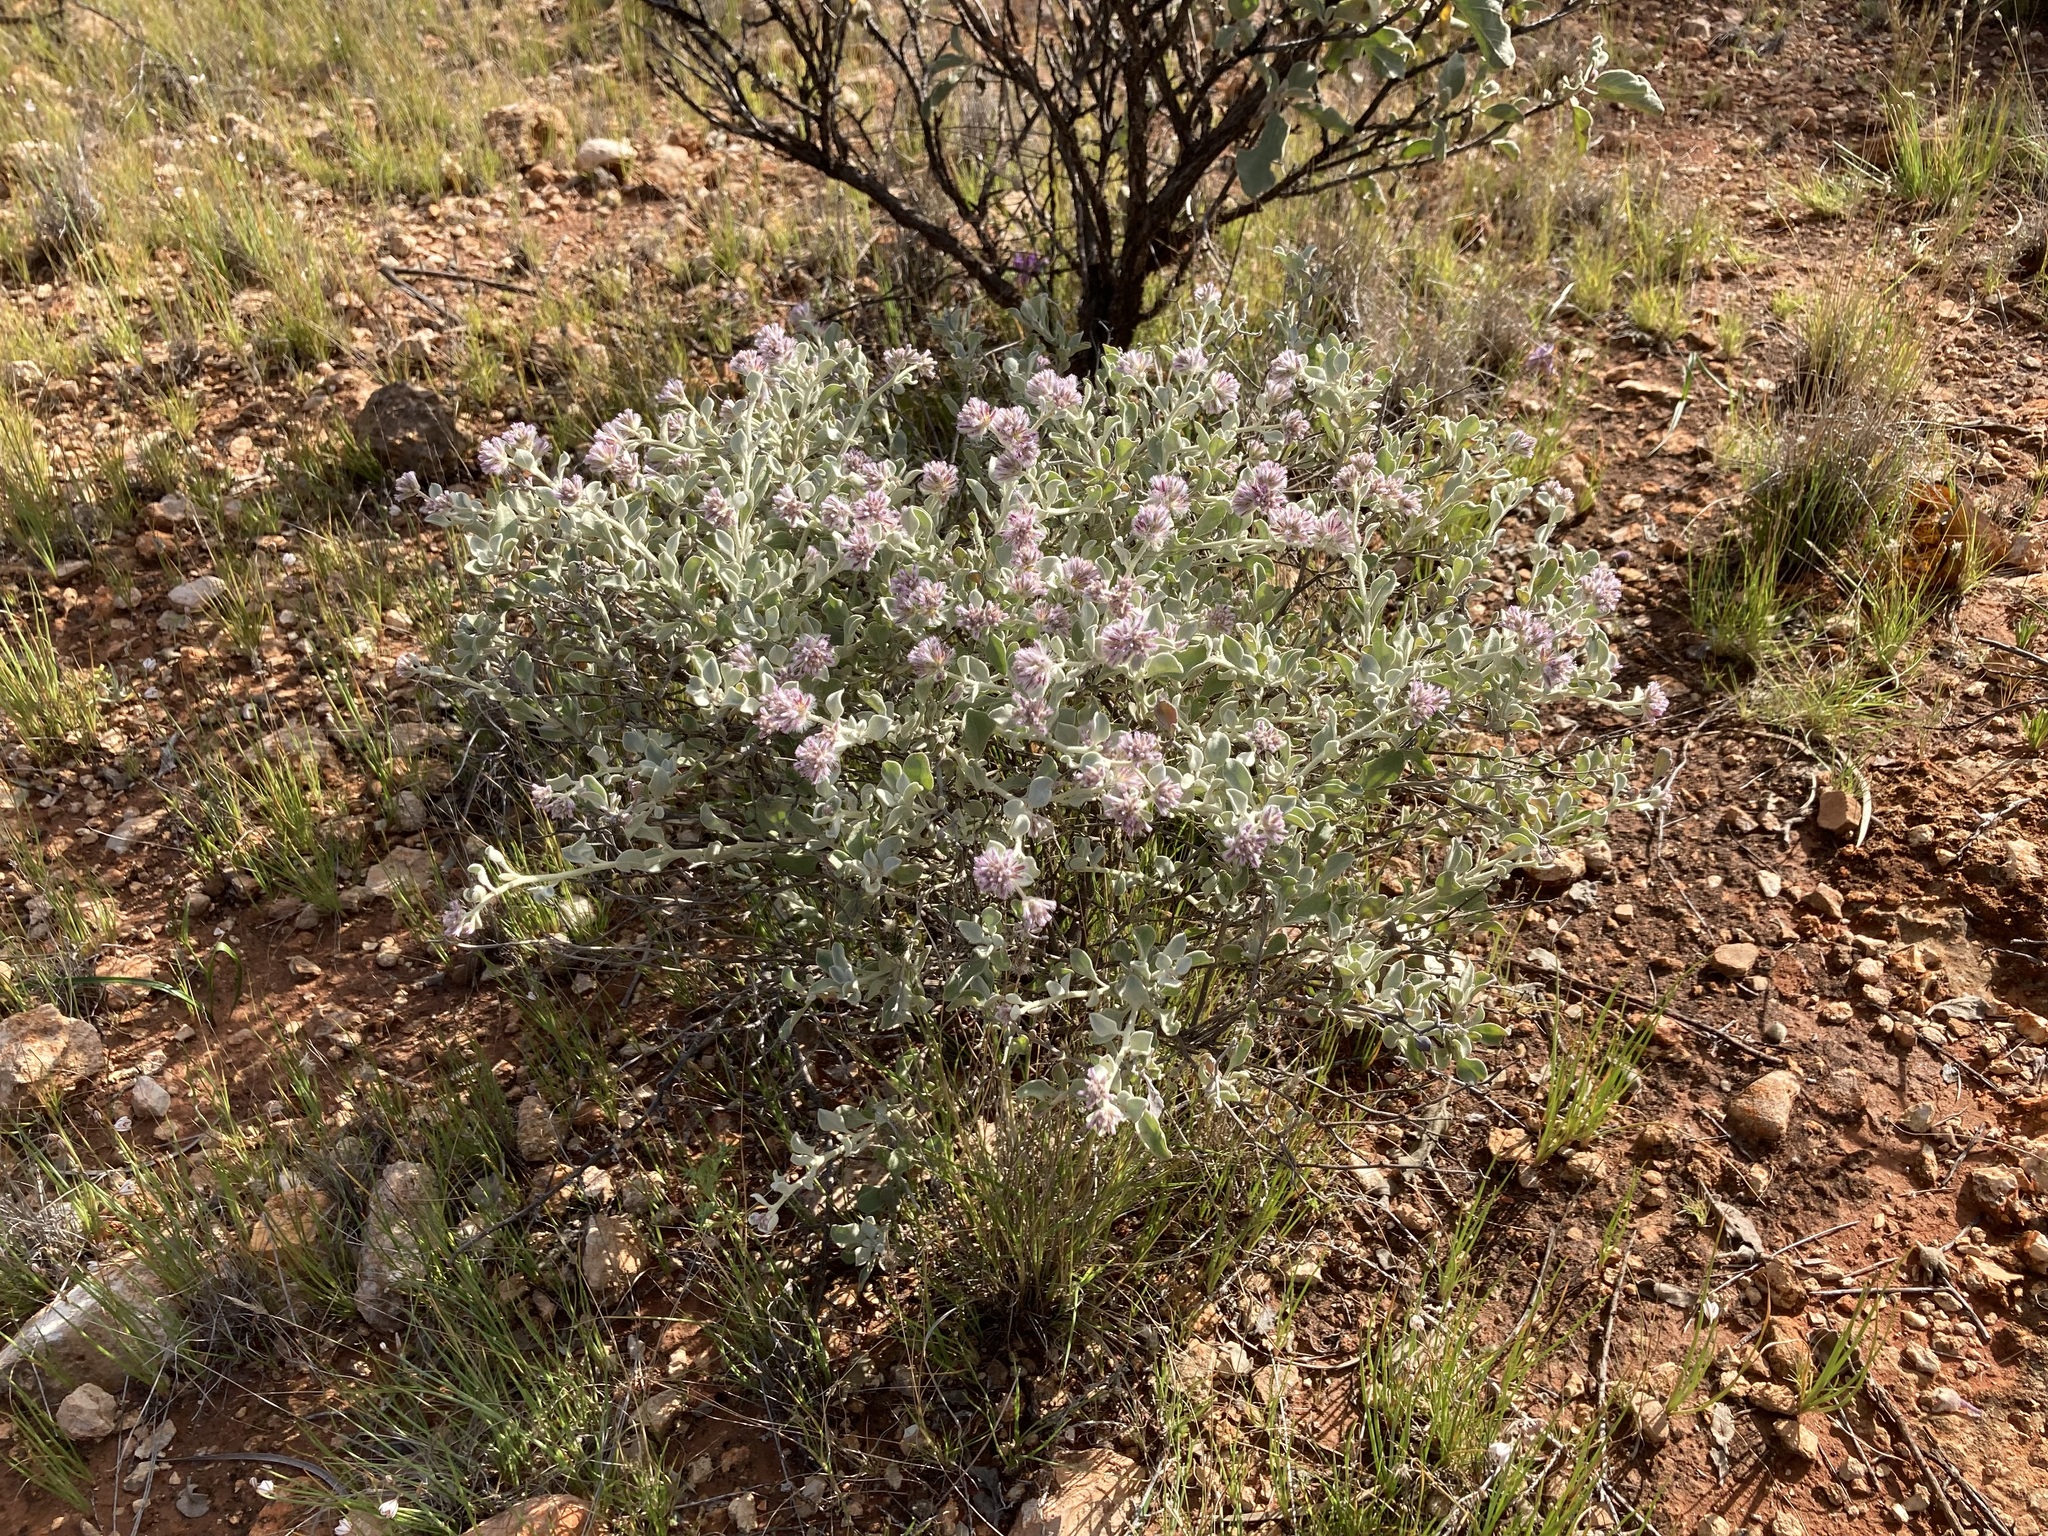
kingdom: Plantae
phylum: Tracheophyta
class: Magnoliopsida
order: Caryophyllales
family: Amaranthaceae
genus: Ptilotus
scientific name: Ptilotus obovatus
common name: Cottonbush
